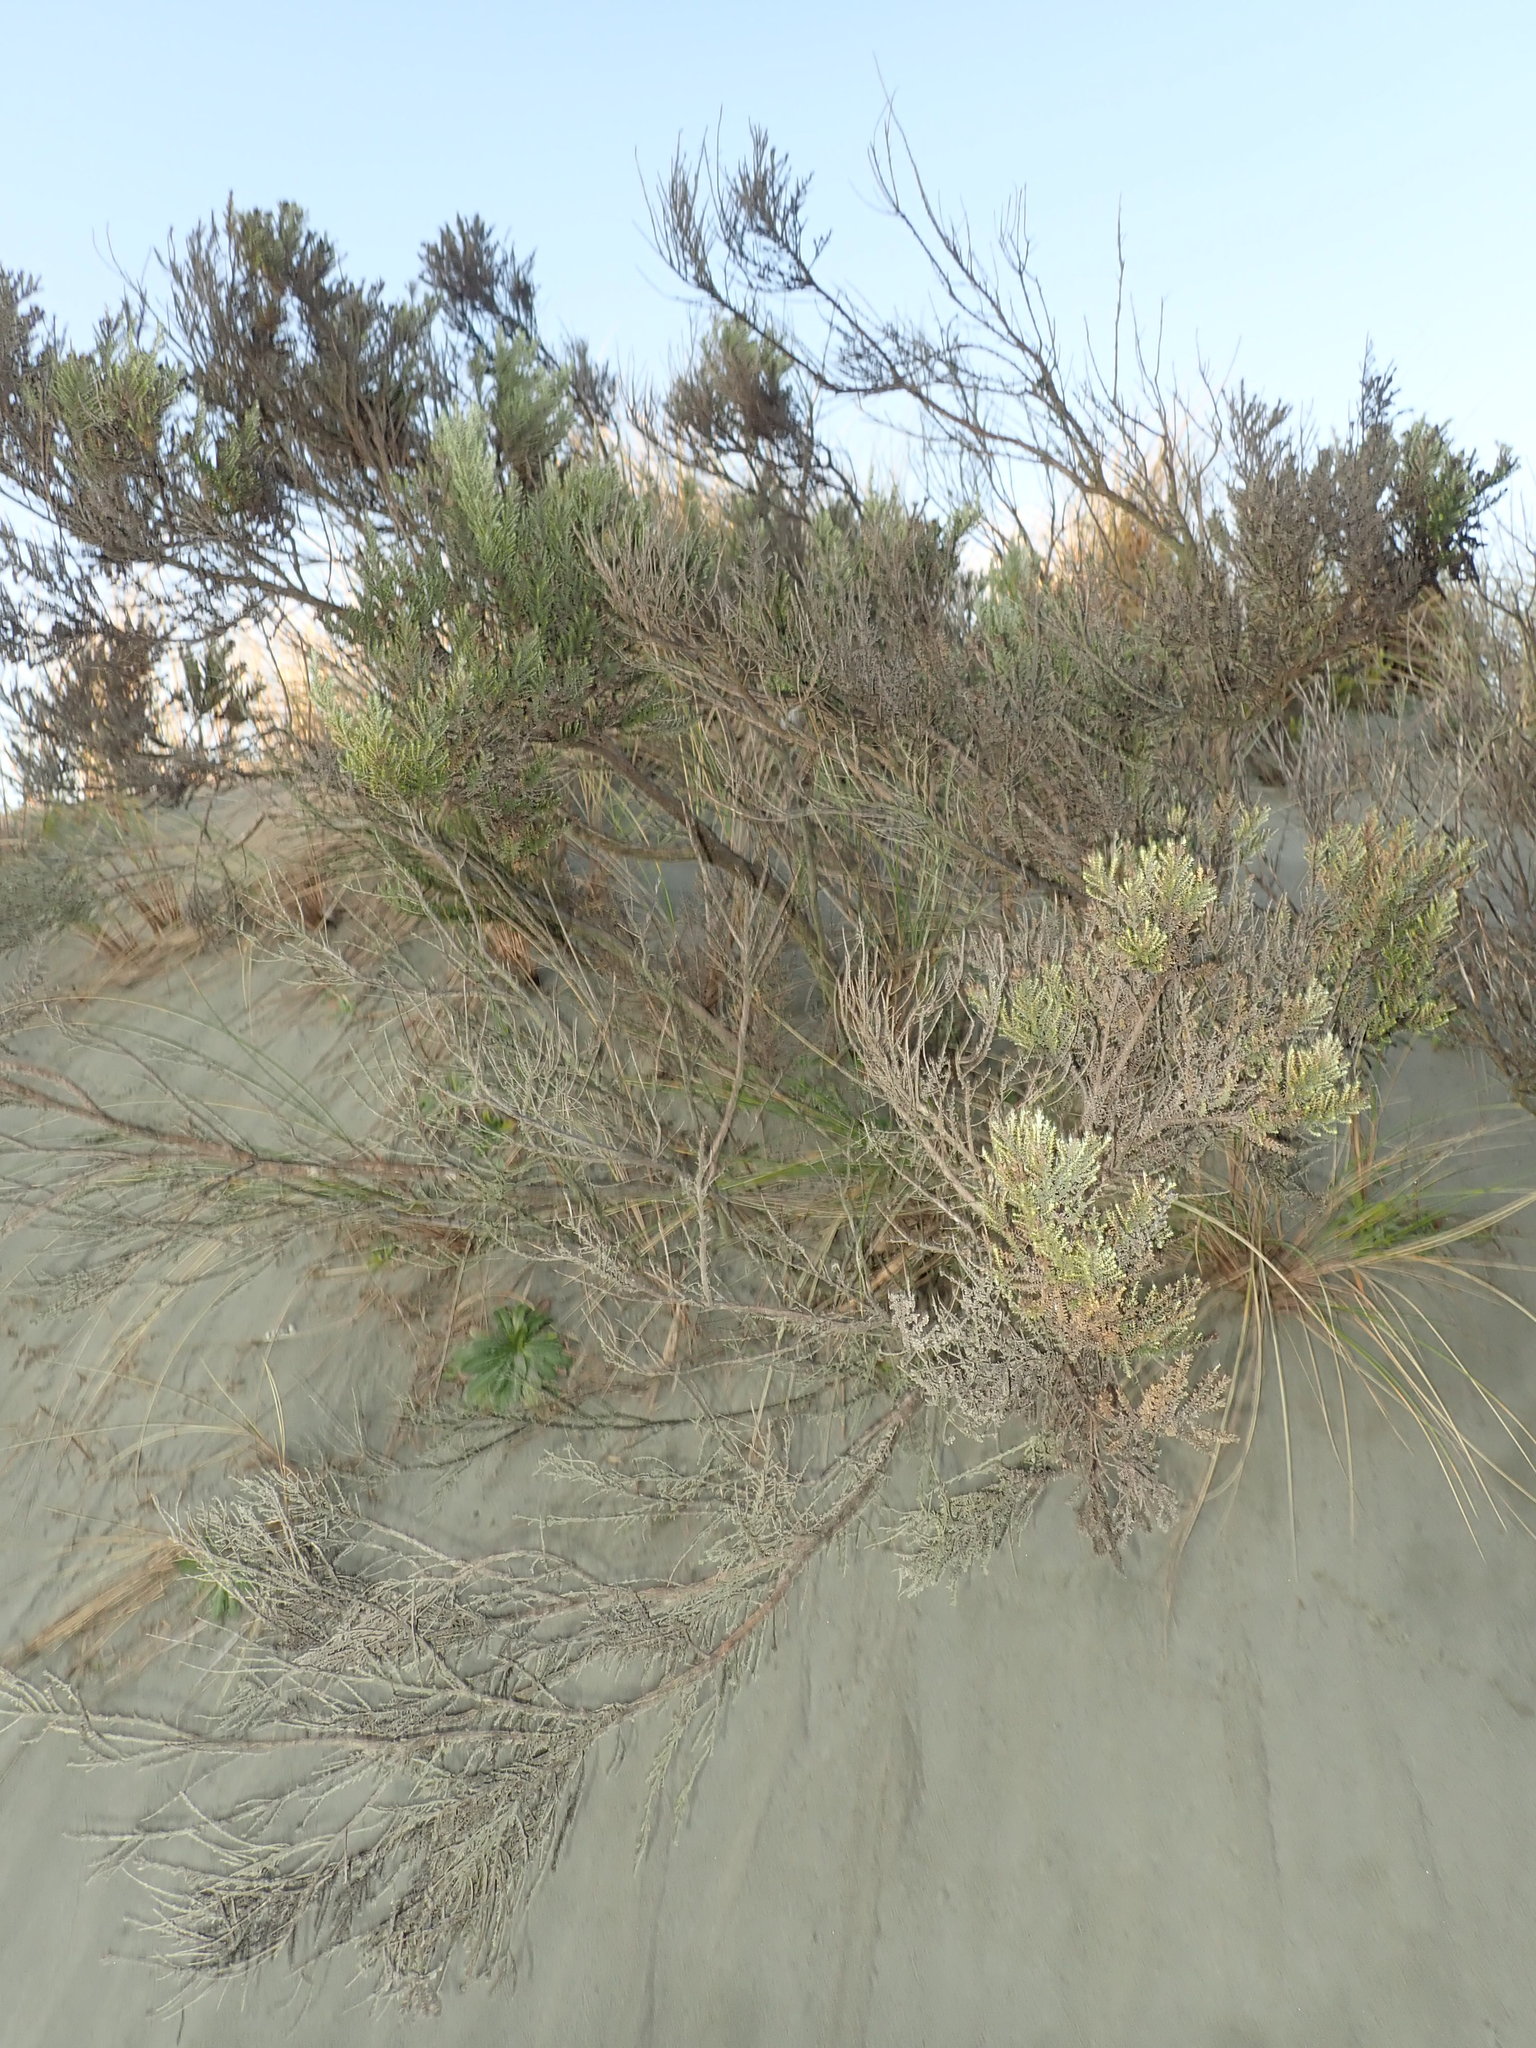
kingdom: Plantae
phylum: Tracheophyta
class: Magnoliopsida
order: Asterales
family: Asteraceae
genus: Ozothamnus
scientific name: Ozothamnus leptophyllus
